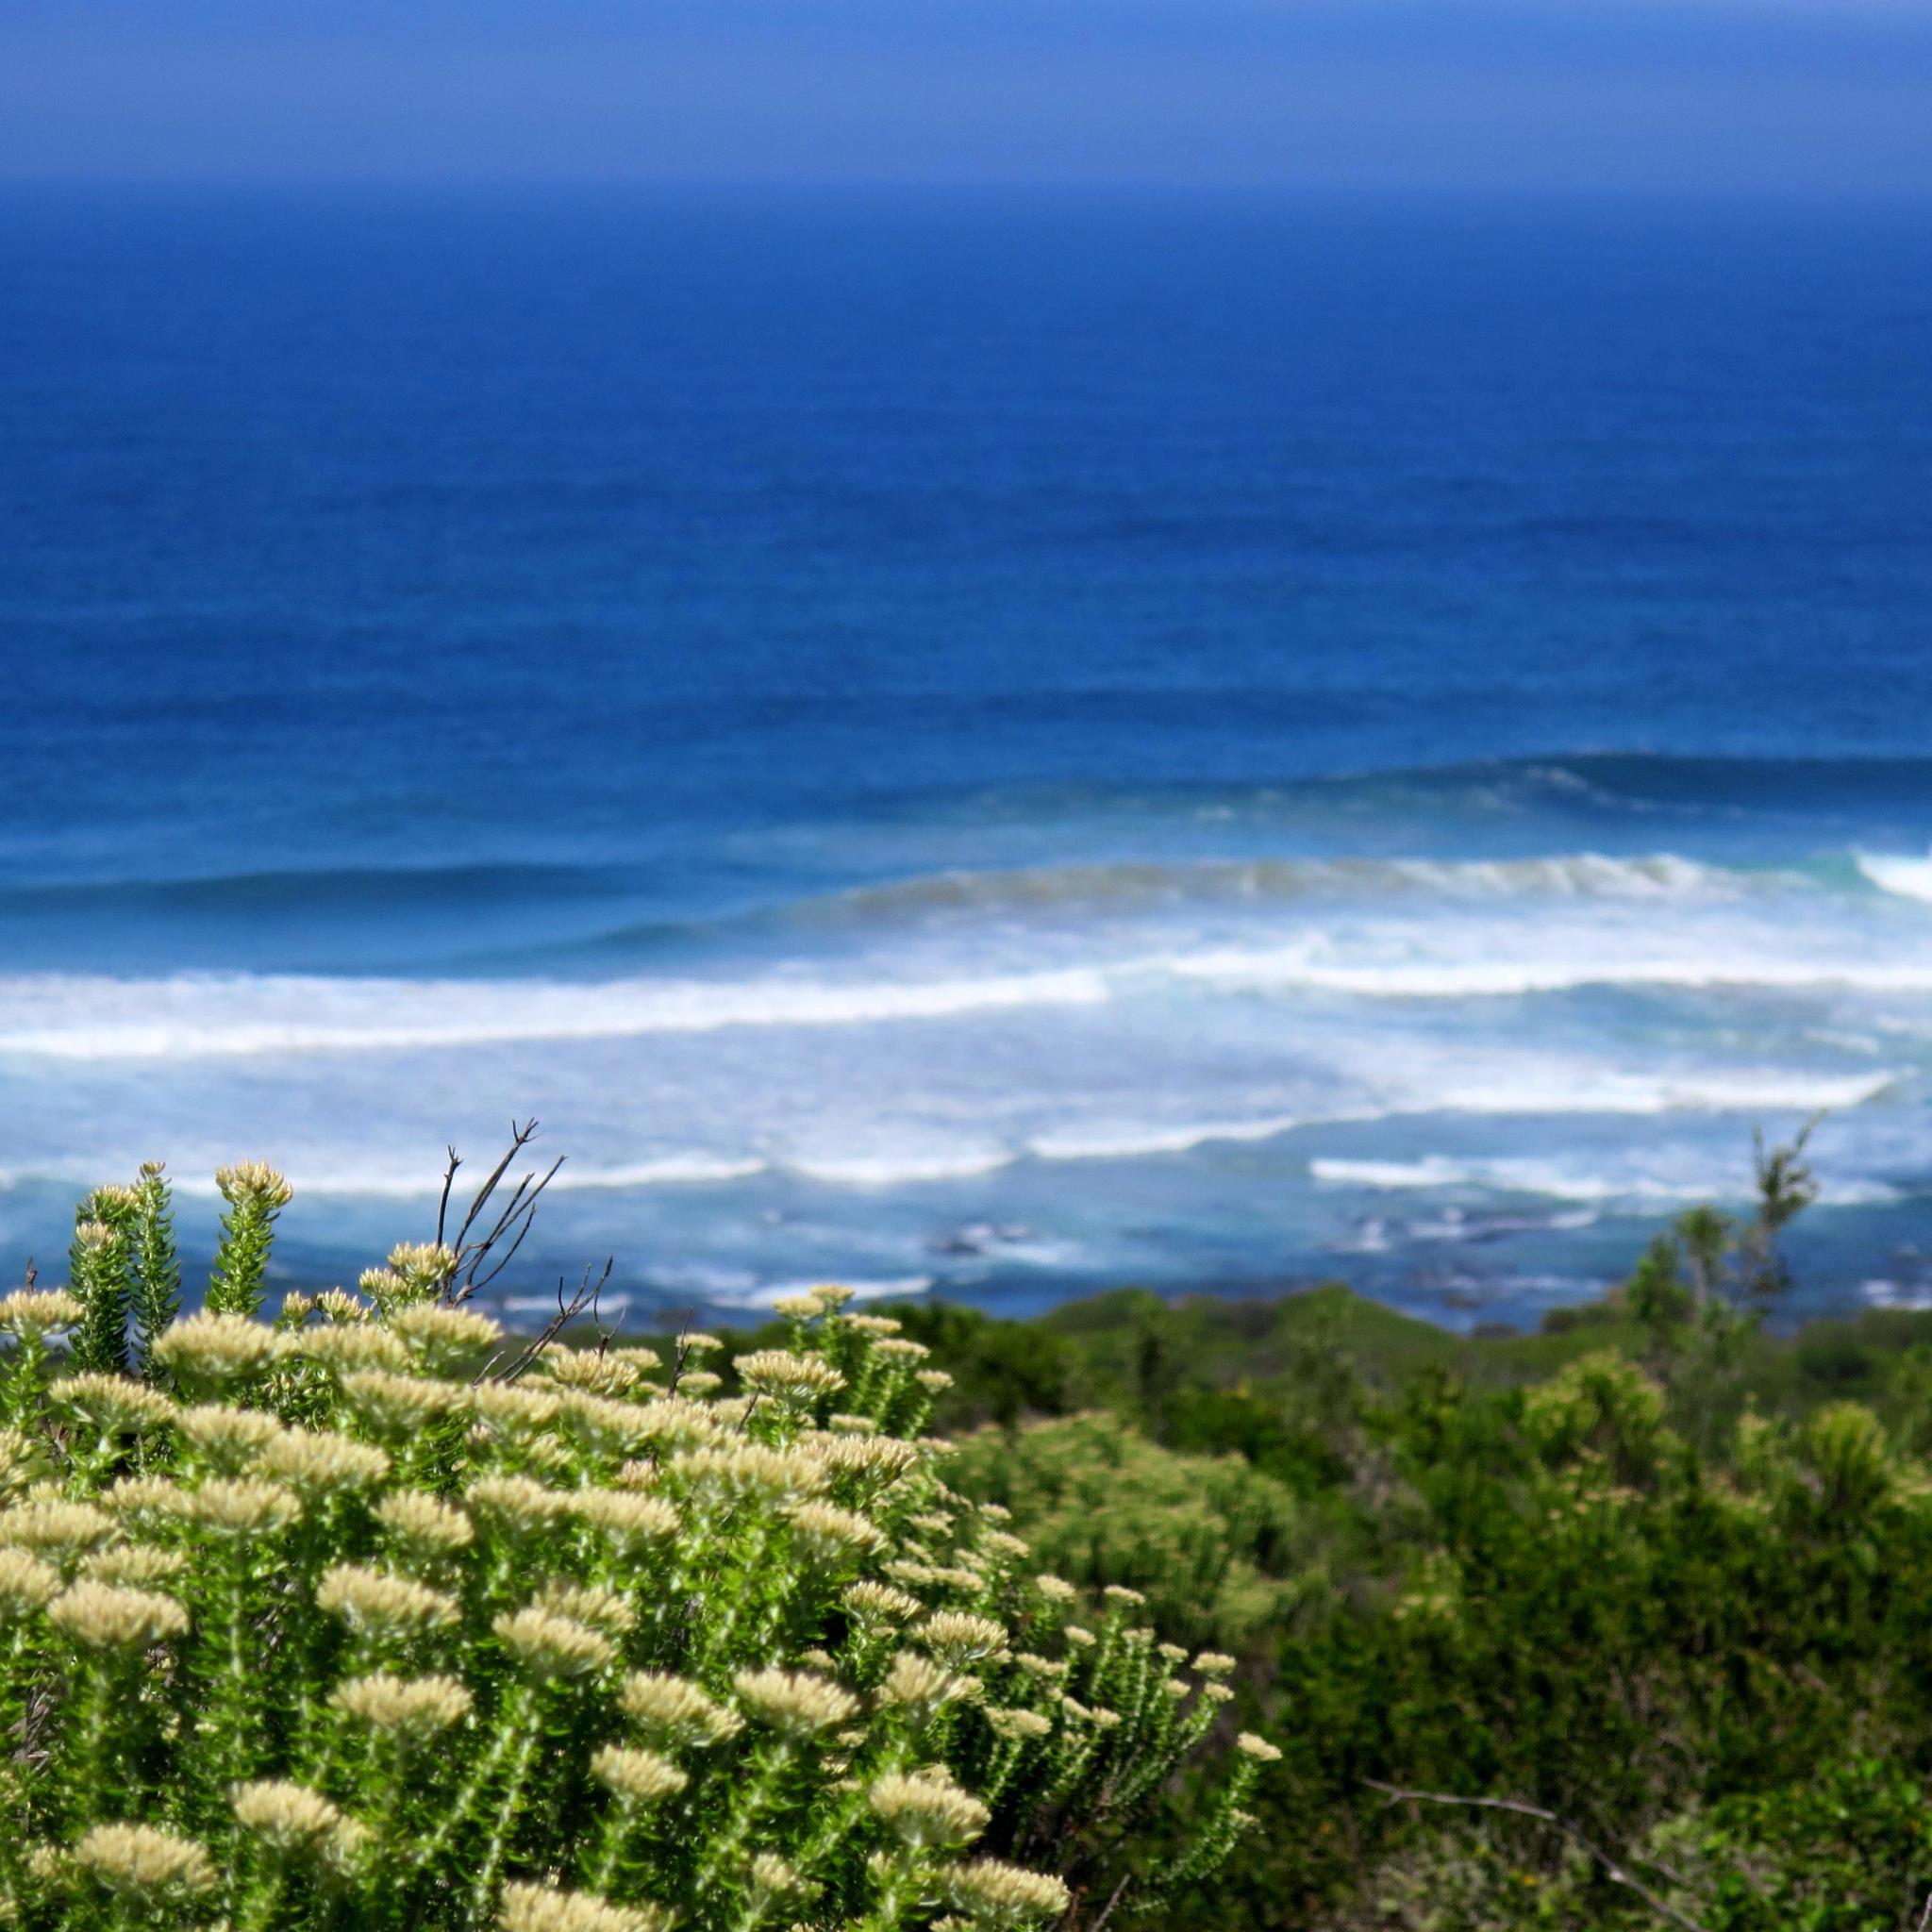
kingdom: Plantae
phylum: Tracheophyta
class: Magnoliopsida
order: Asterales
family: Asteraceae
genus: Metalasia
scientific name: Metalasia muricata
